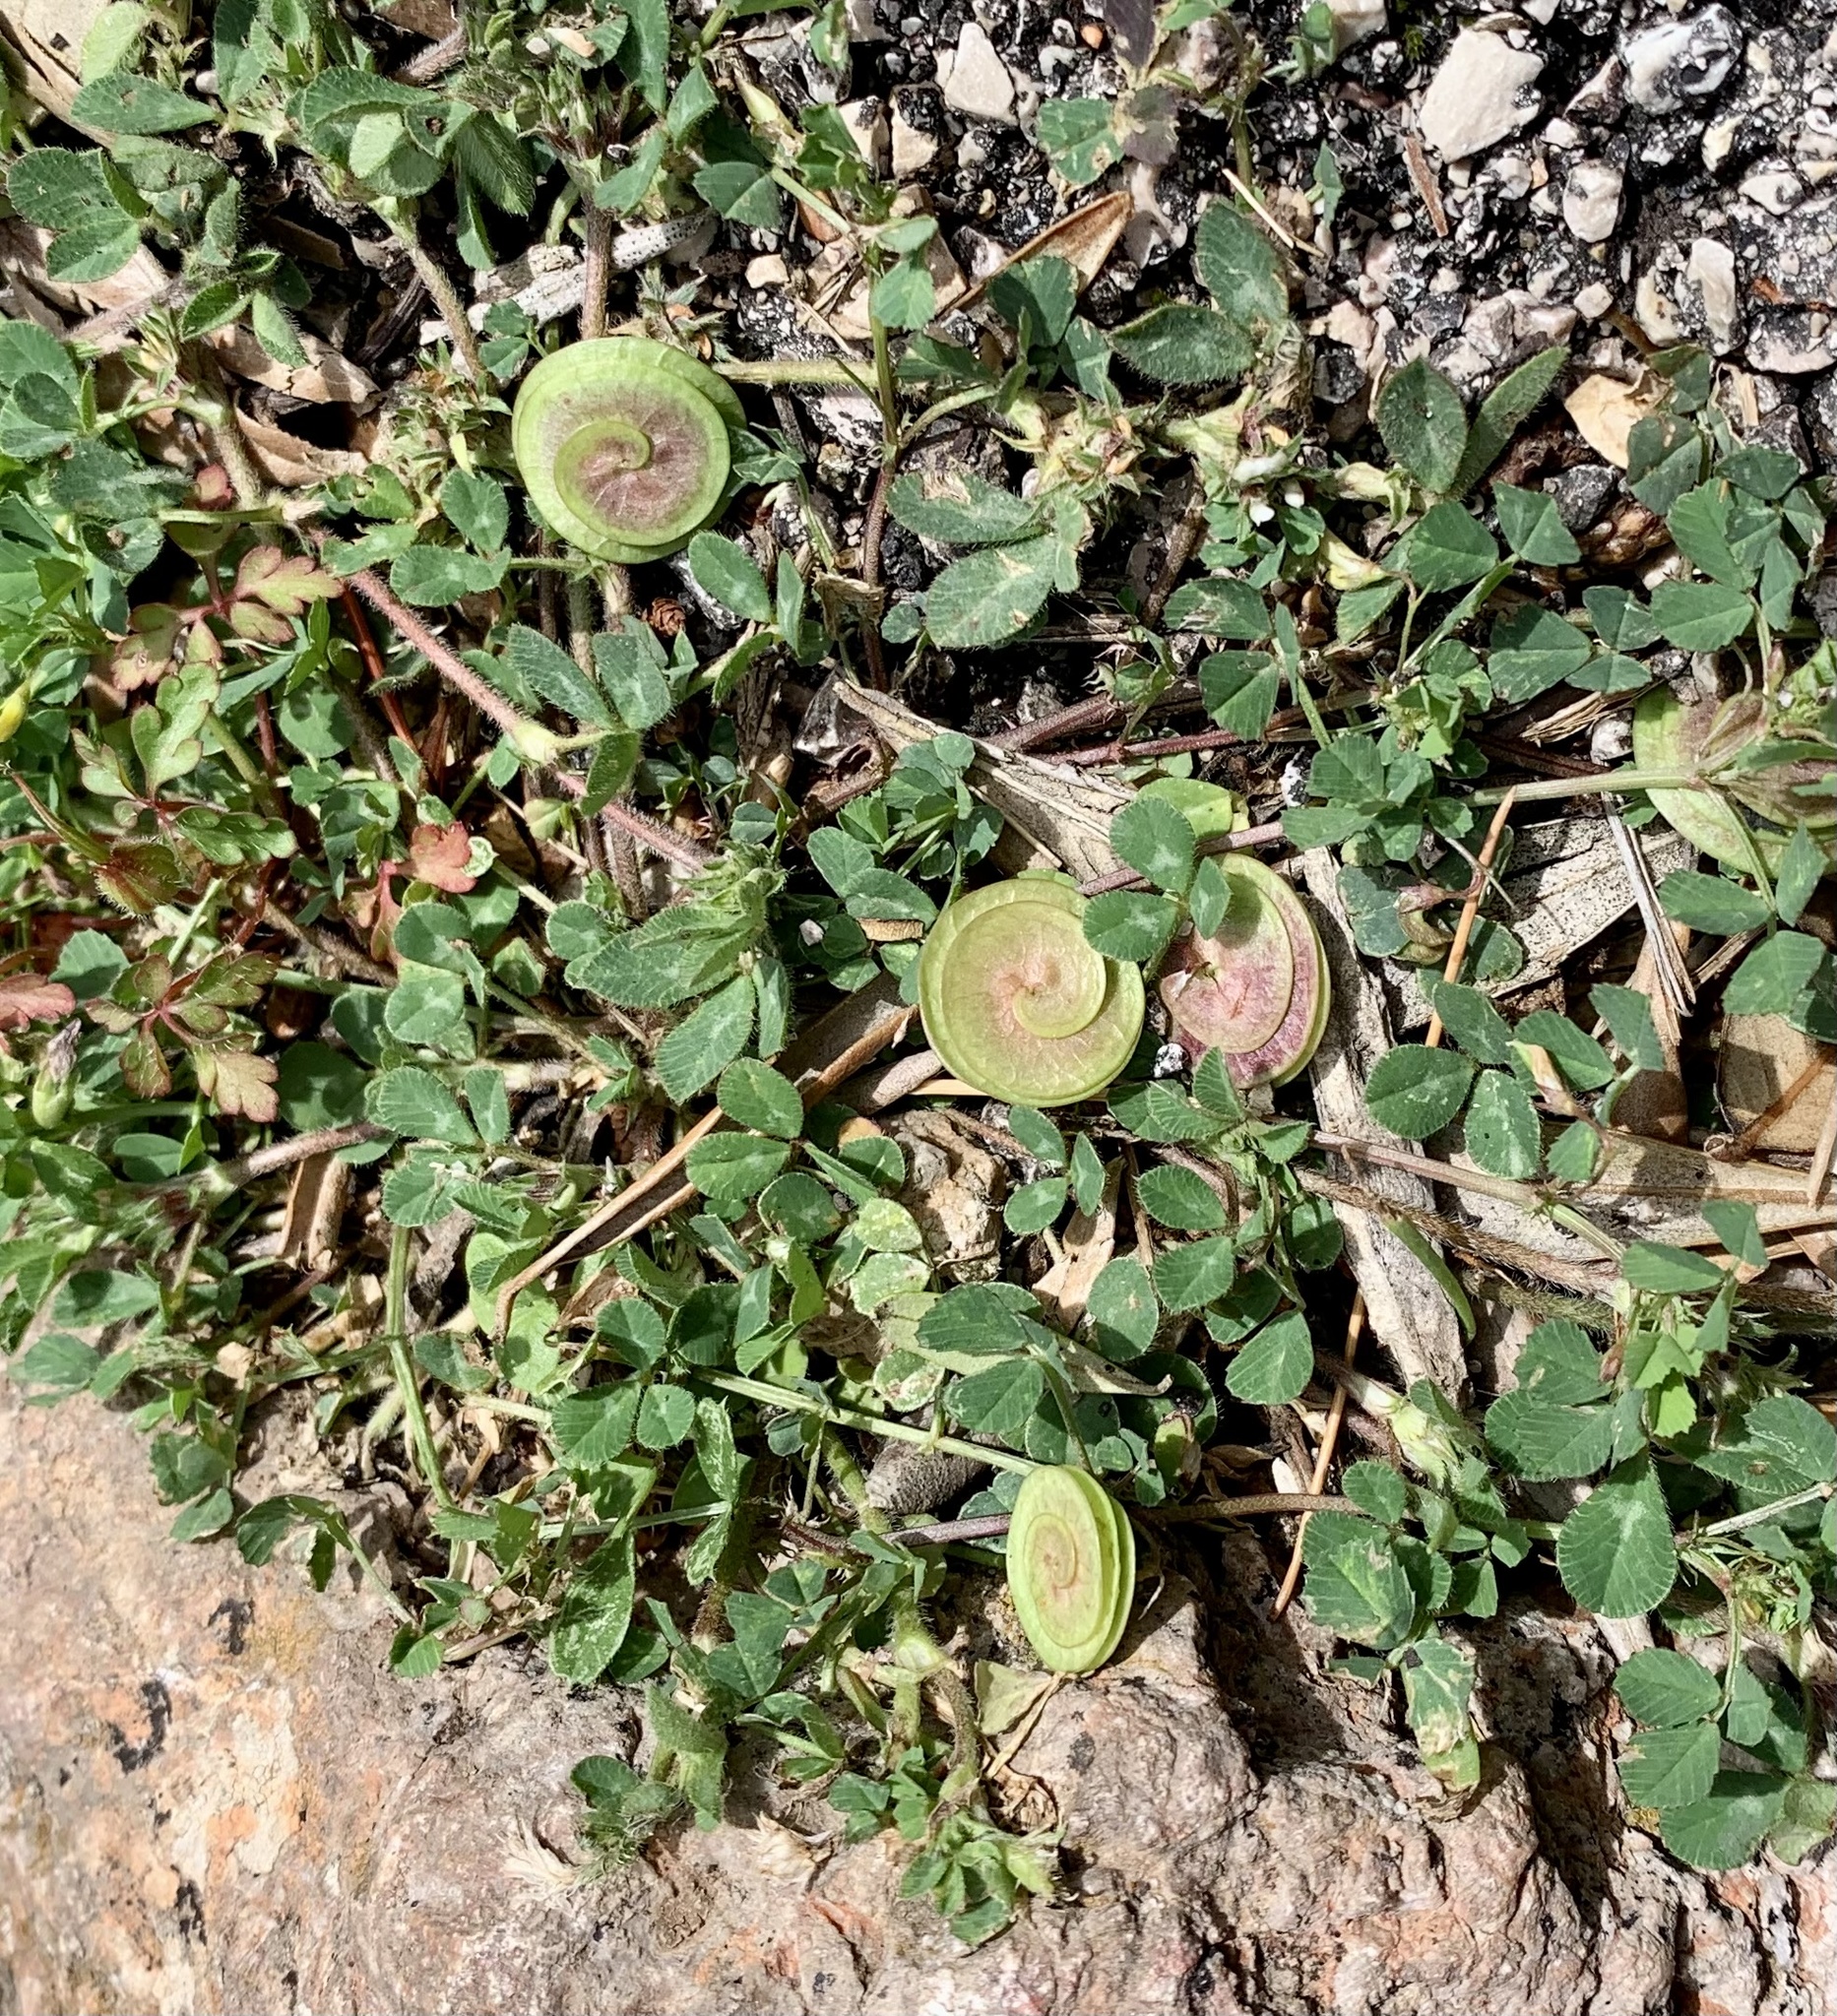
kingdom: Plantae
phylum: Tracheophyta
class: Magnoliopsida
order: Fabales
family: Fabaceae
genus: Medicago
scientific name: Medicago orbicularis
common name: Button medick
